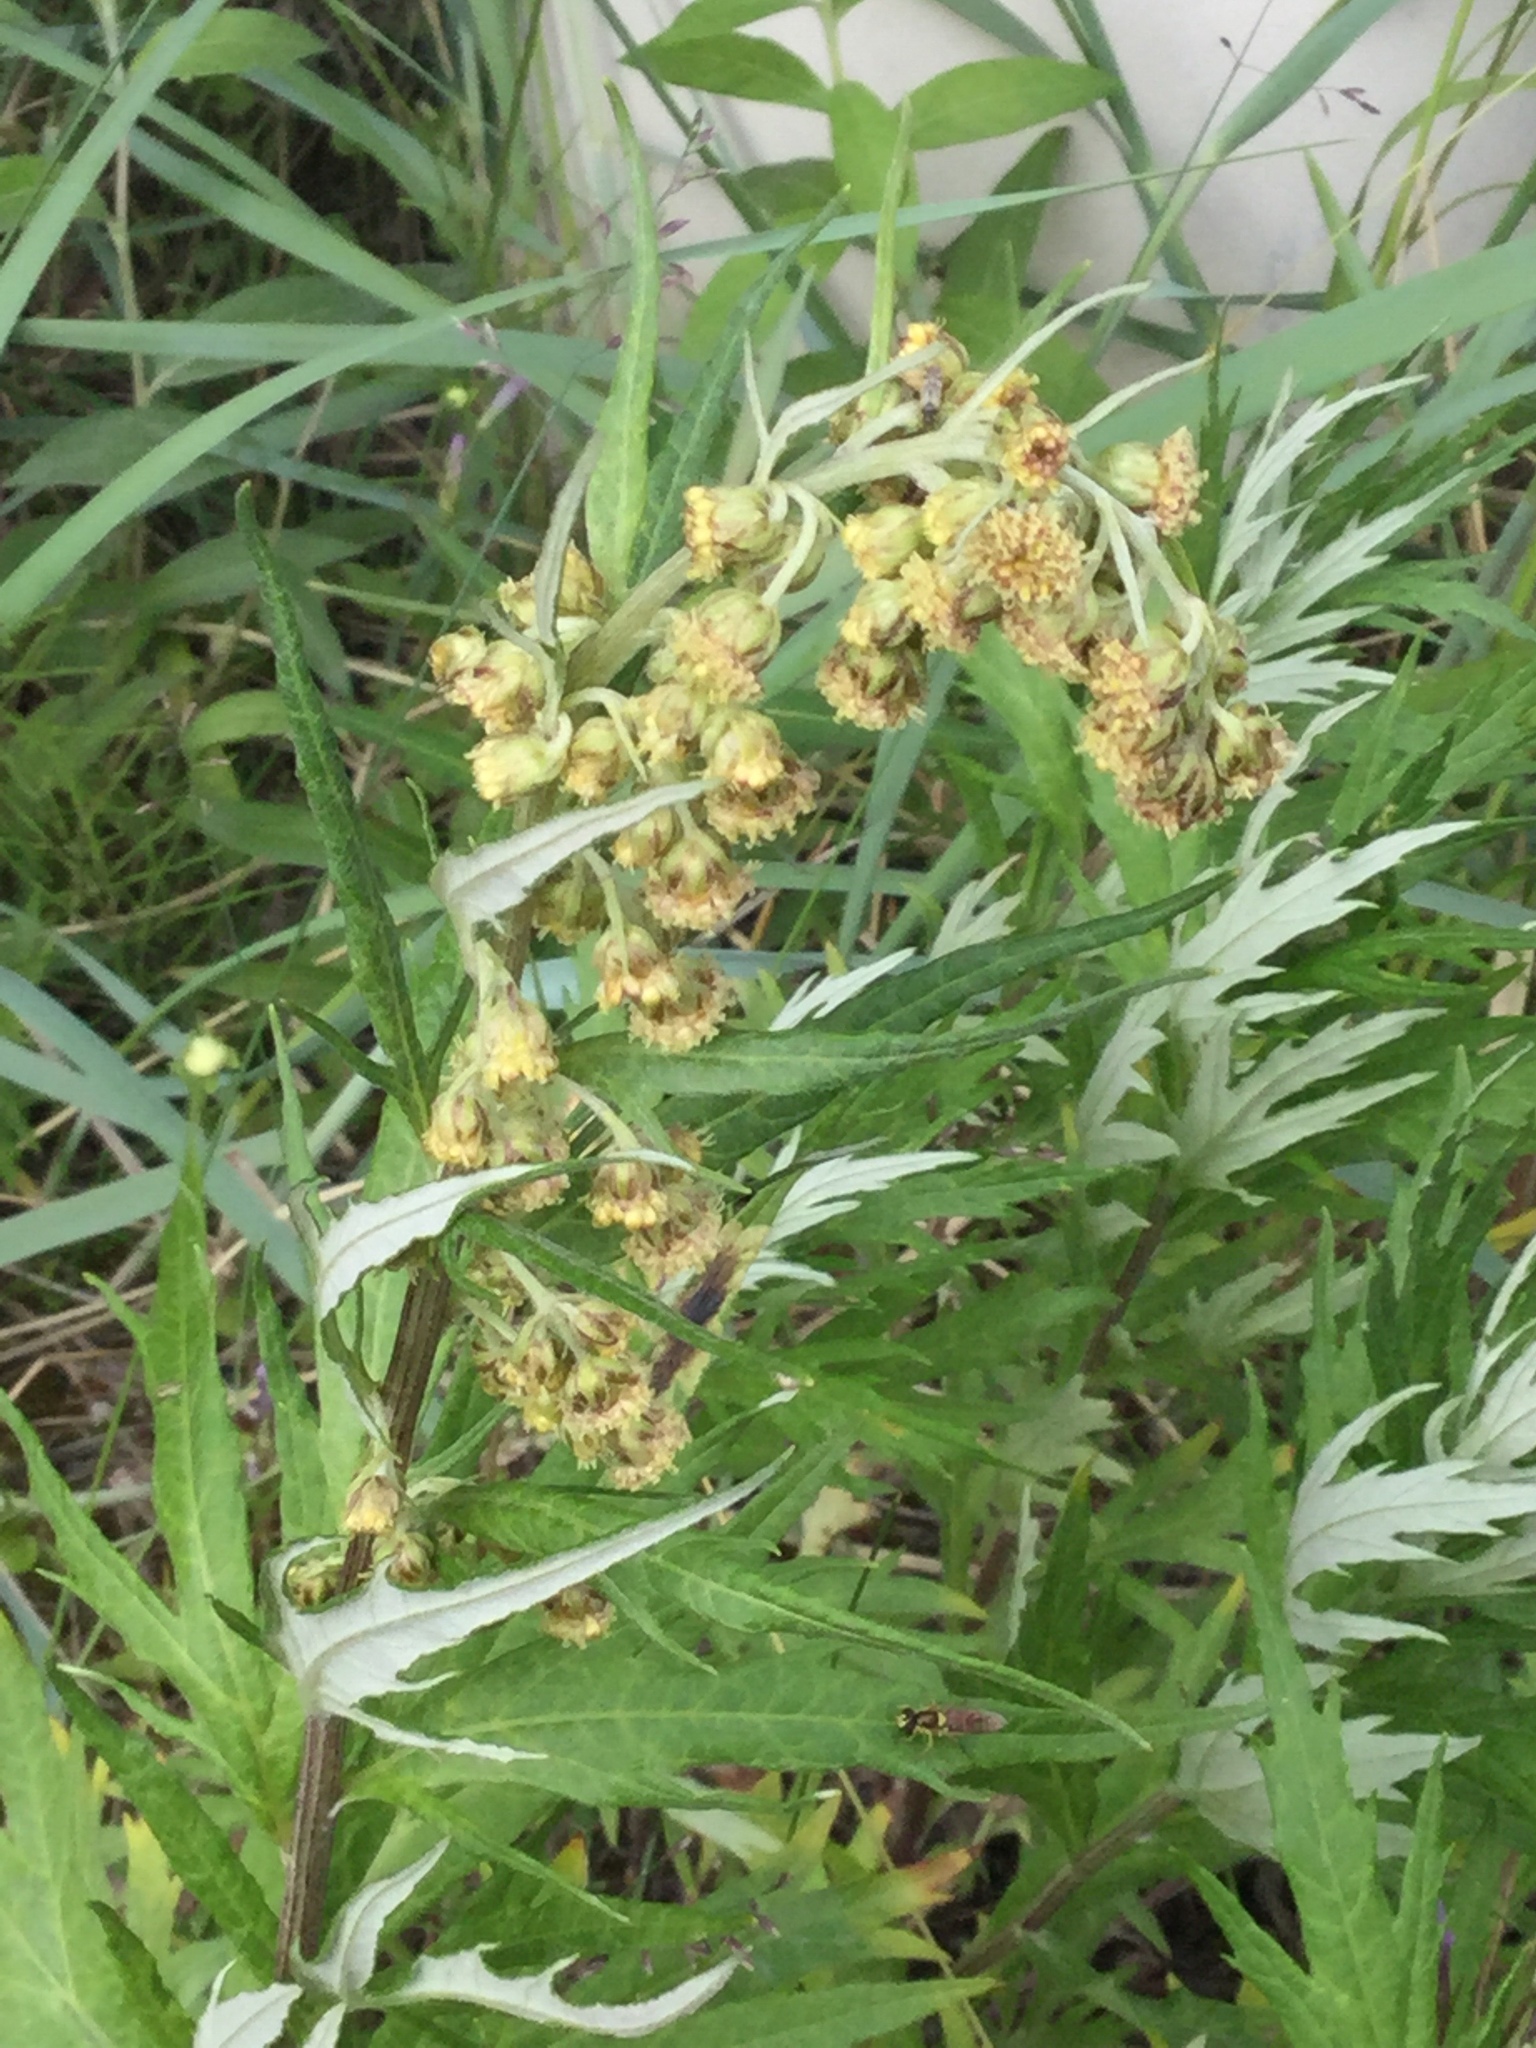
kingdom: Plantae
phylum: Tracheophyta
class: Magnoliopsida
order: Asterales
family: Asteraceae
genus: Artemisia
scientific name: Artemisia tilesii
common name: Aleutian mugwort
